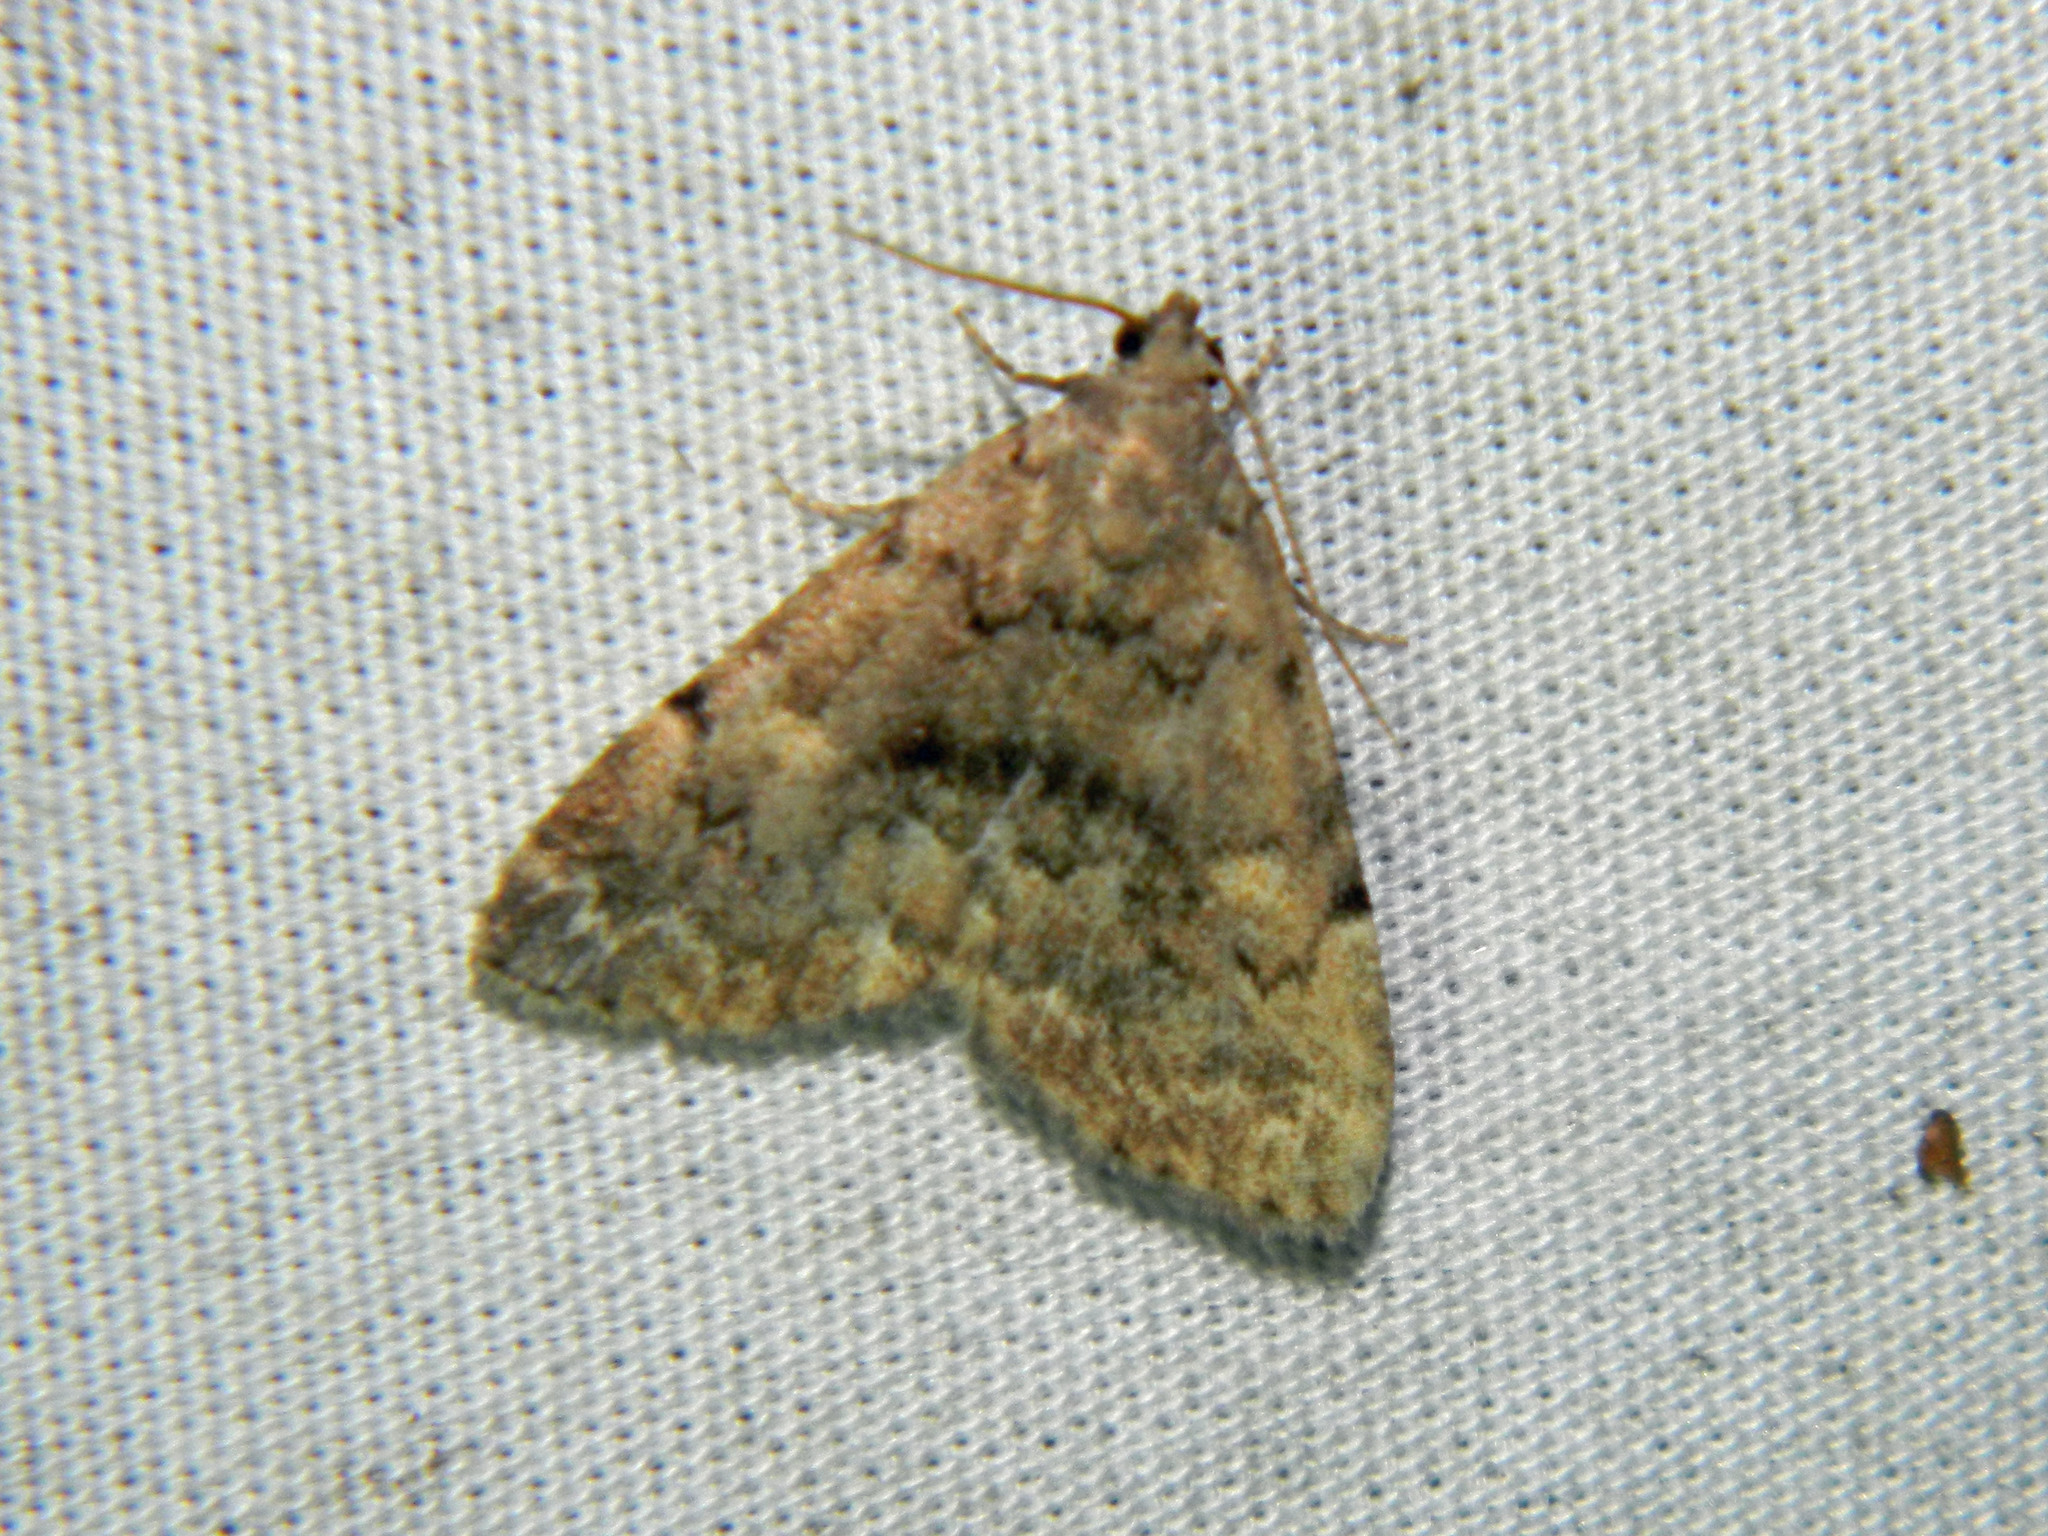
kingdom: Animalia
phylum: Arthropoda
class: Insecta
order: Lepidoptera
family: Erebidae
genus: Idia
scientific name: Idia aemula
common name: Common idia moth
